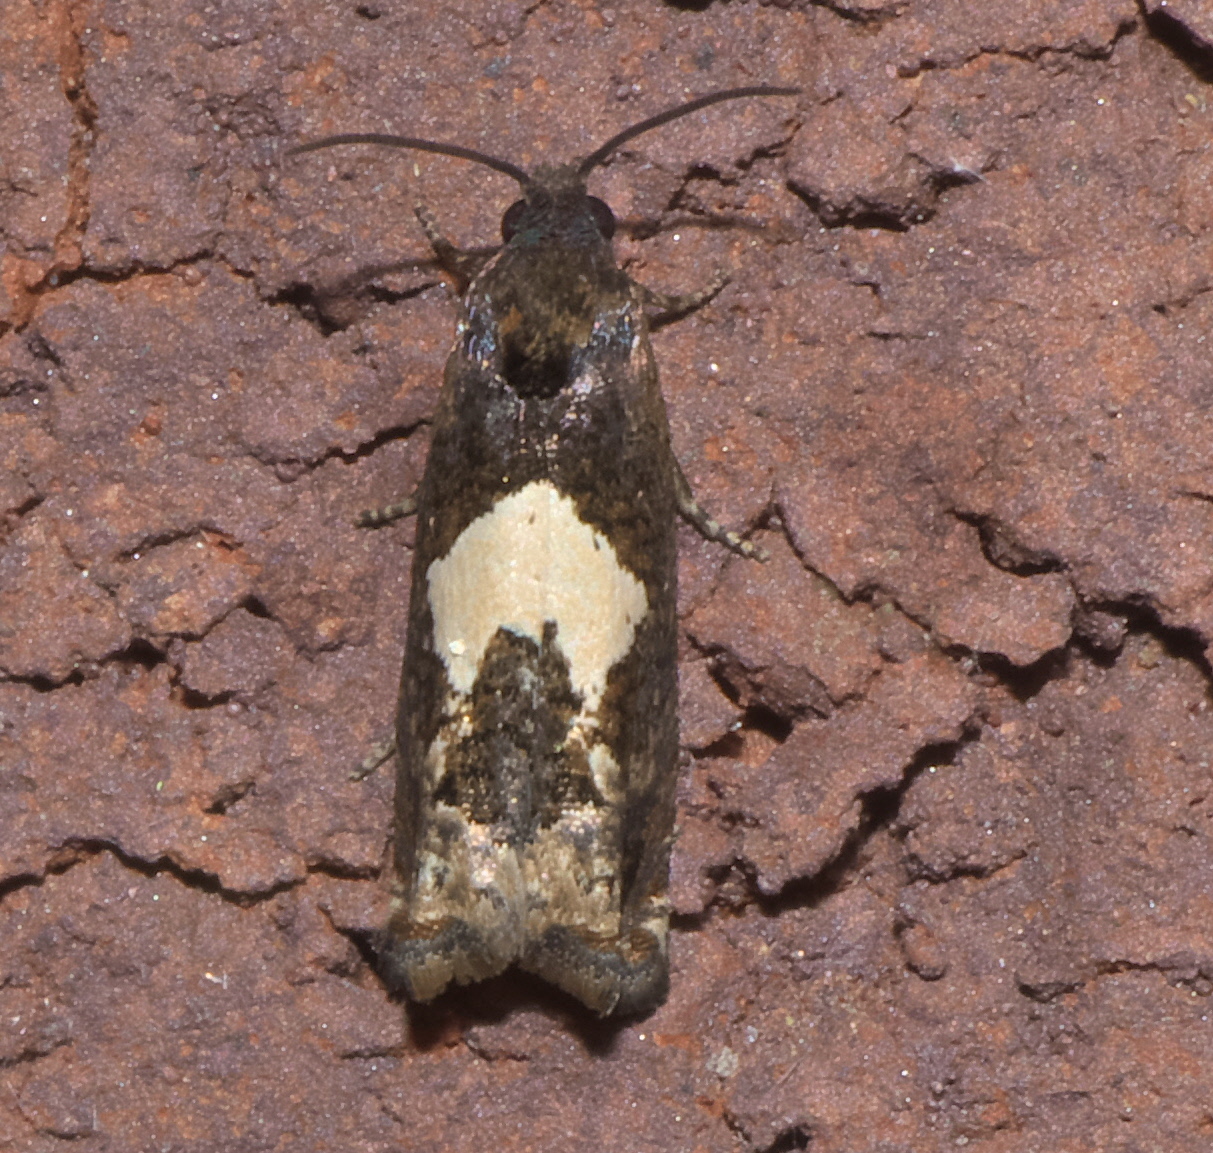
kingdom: Animalia
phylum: Arthropoda
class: Insecta
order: Lepidoptera
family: Tortricidae
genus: Epiblema
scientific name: Epiblema otiosana
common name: Bidens borer moth
